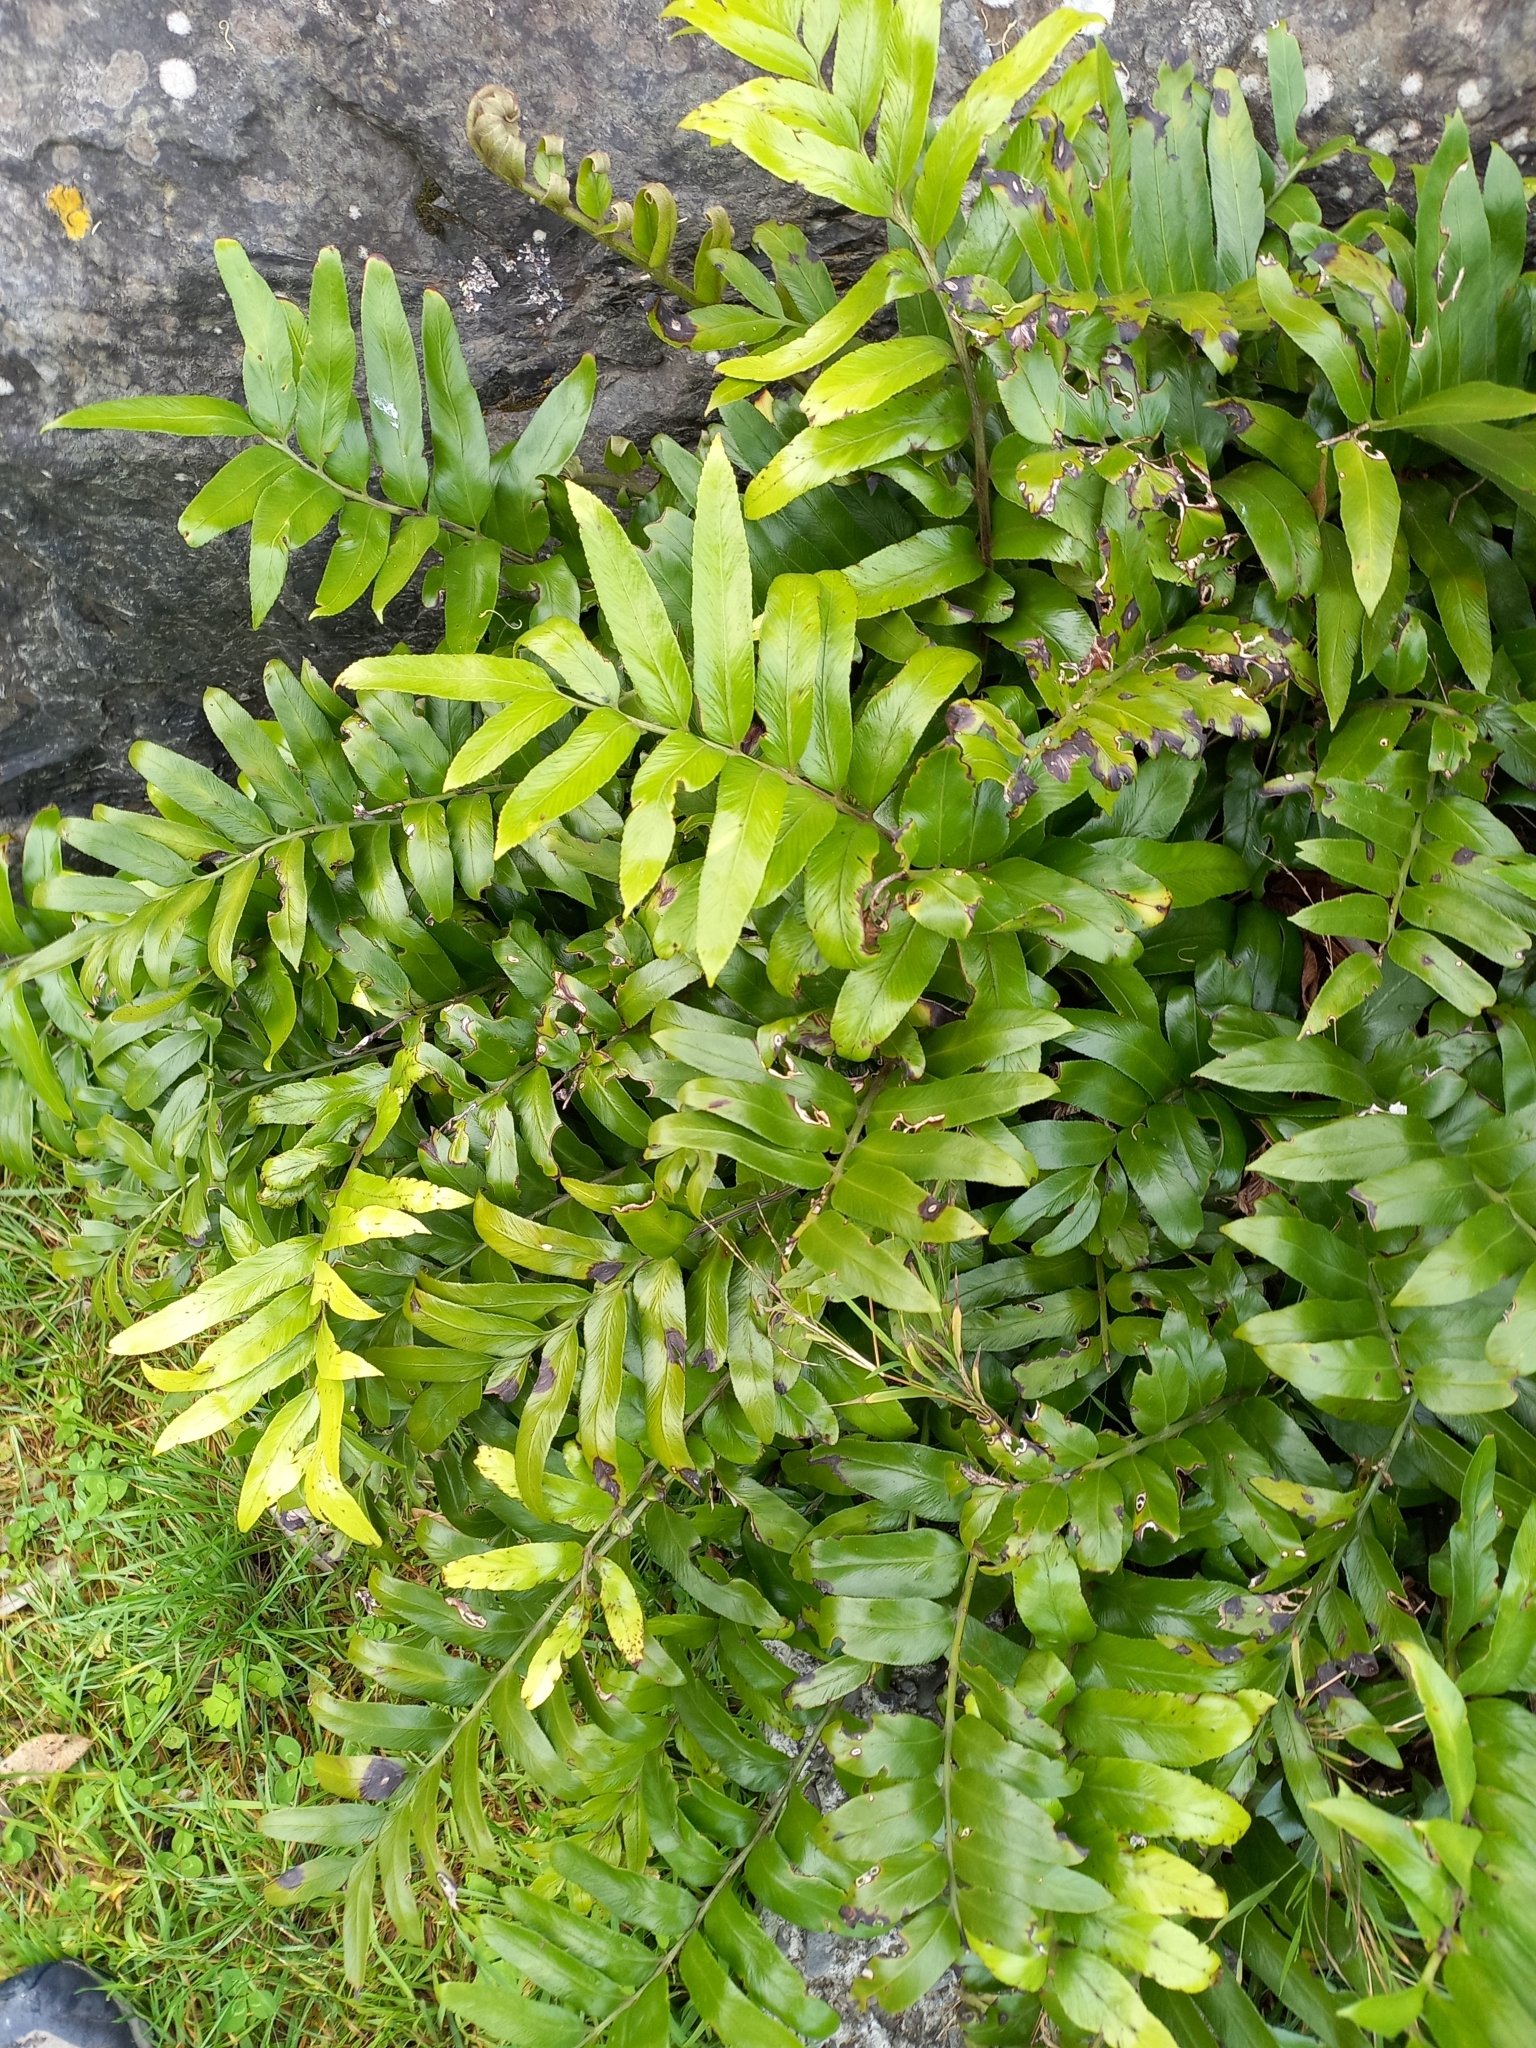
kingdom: Plantae
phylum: Tracheophyta
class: Polypodiopsida
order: Polypodiales
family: Aspleniaceae
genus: Asplenium
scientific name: Asplenium oblongifolium
